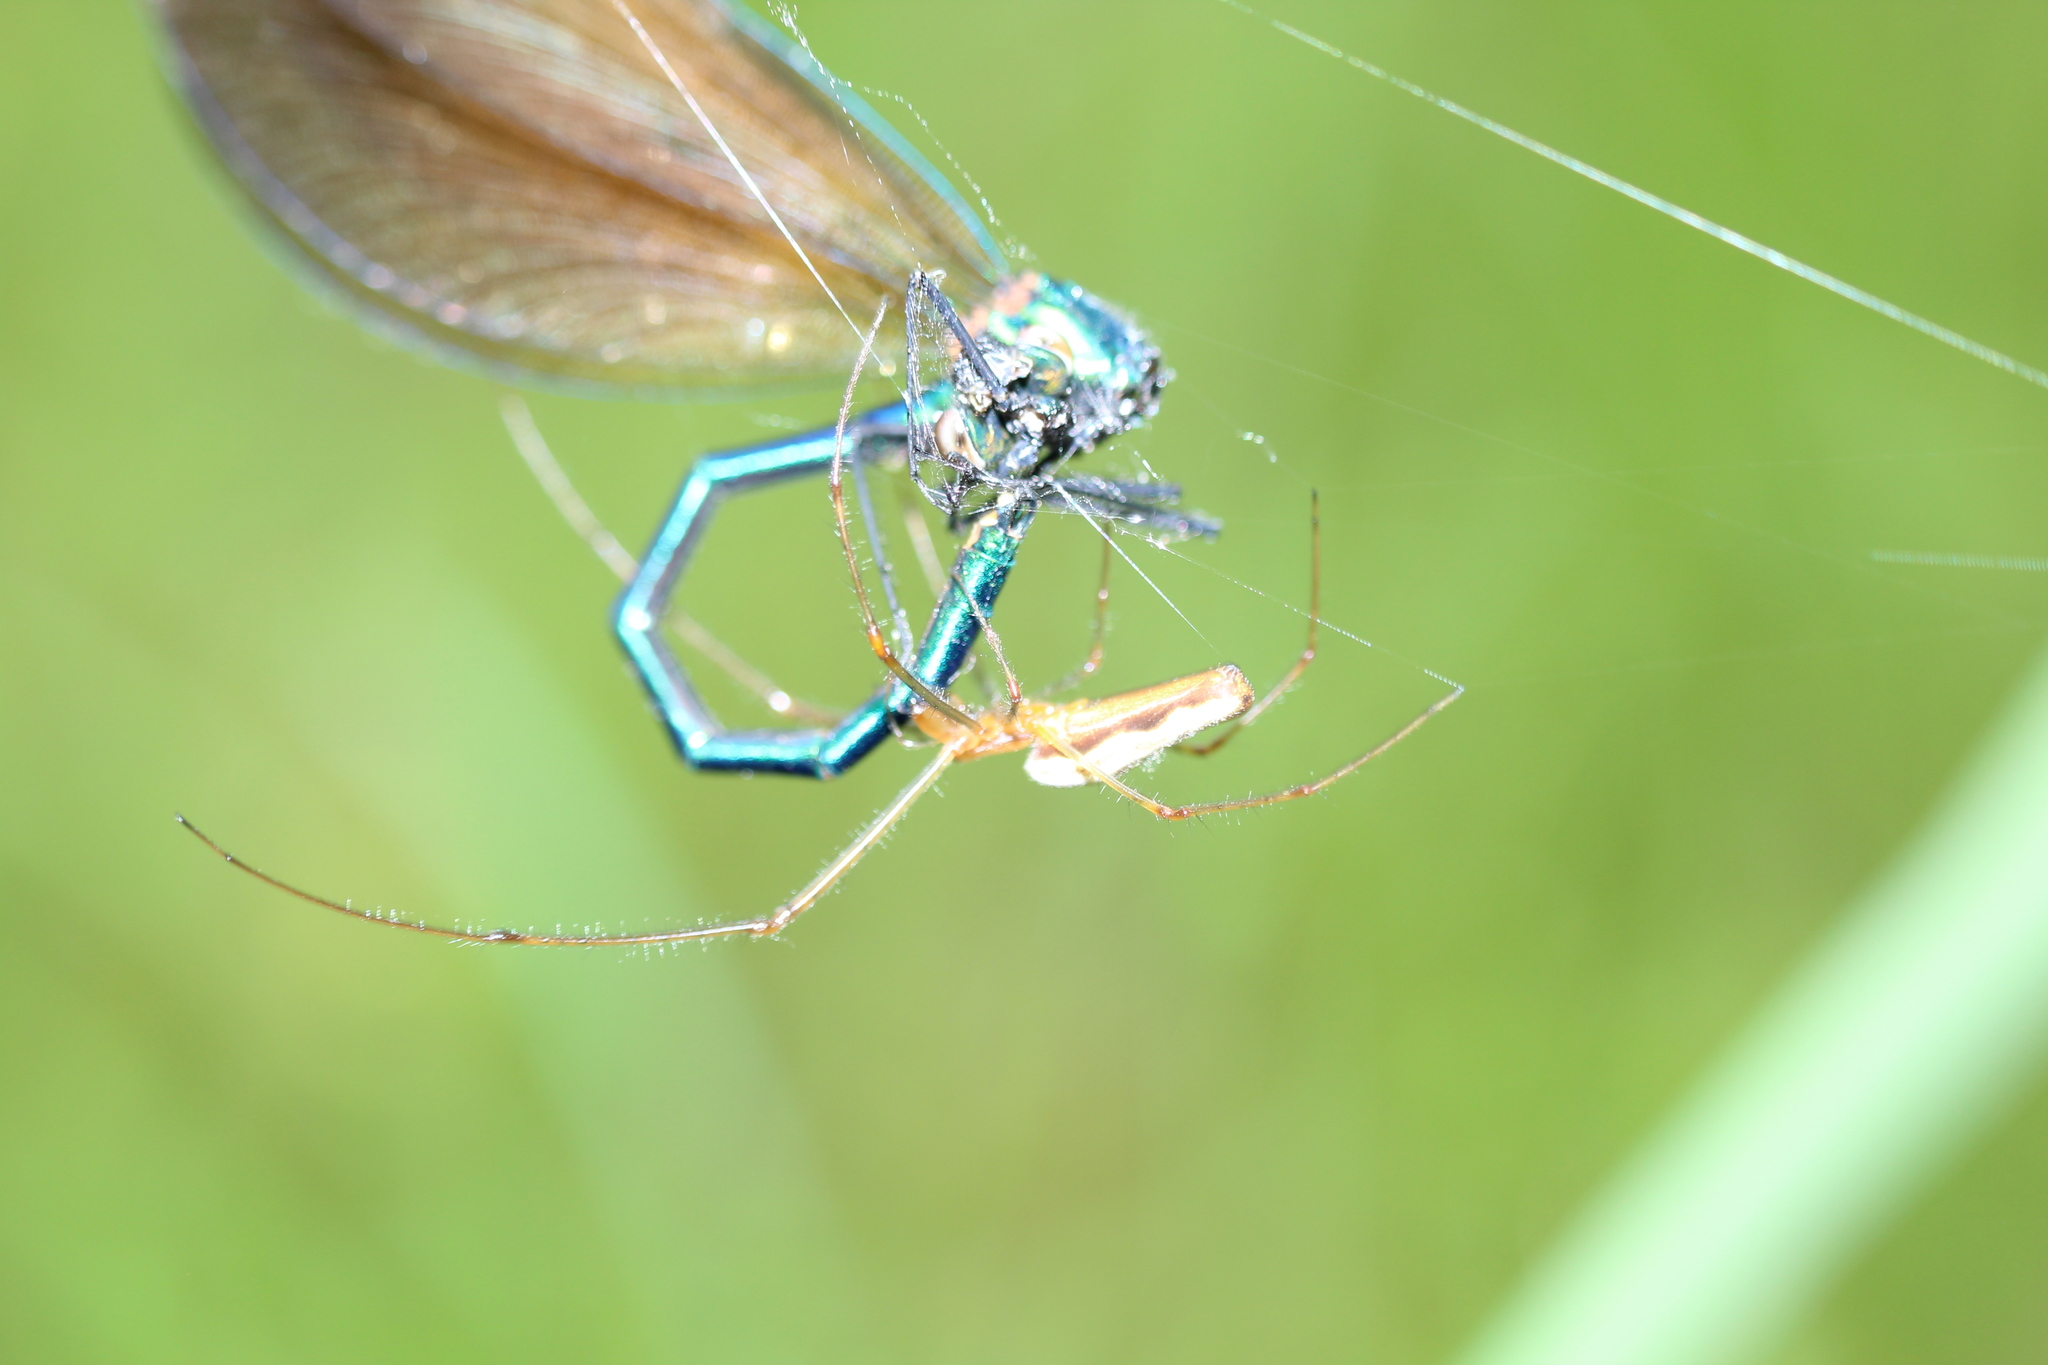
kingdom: Animalia
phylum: Arthropoda
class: Arachnida
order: Araneae
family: Tetragnathidae
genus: Tetragnatha
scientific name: Tetragnatha
